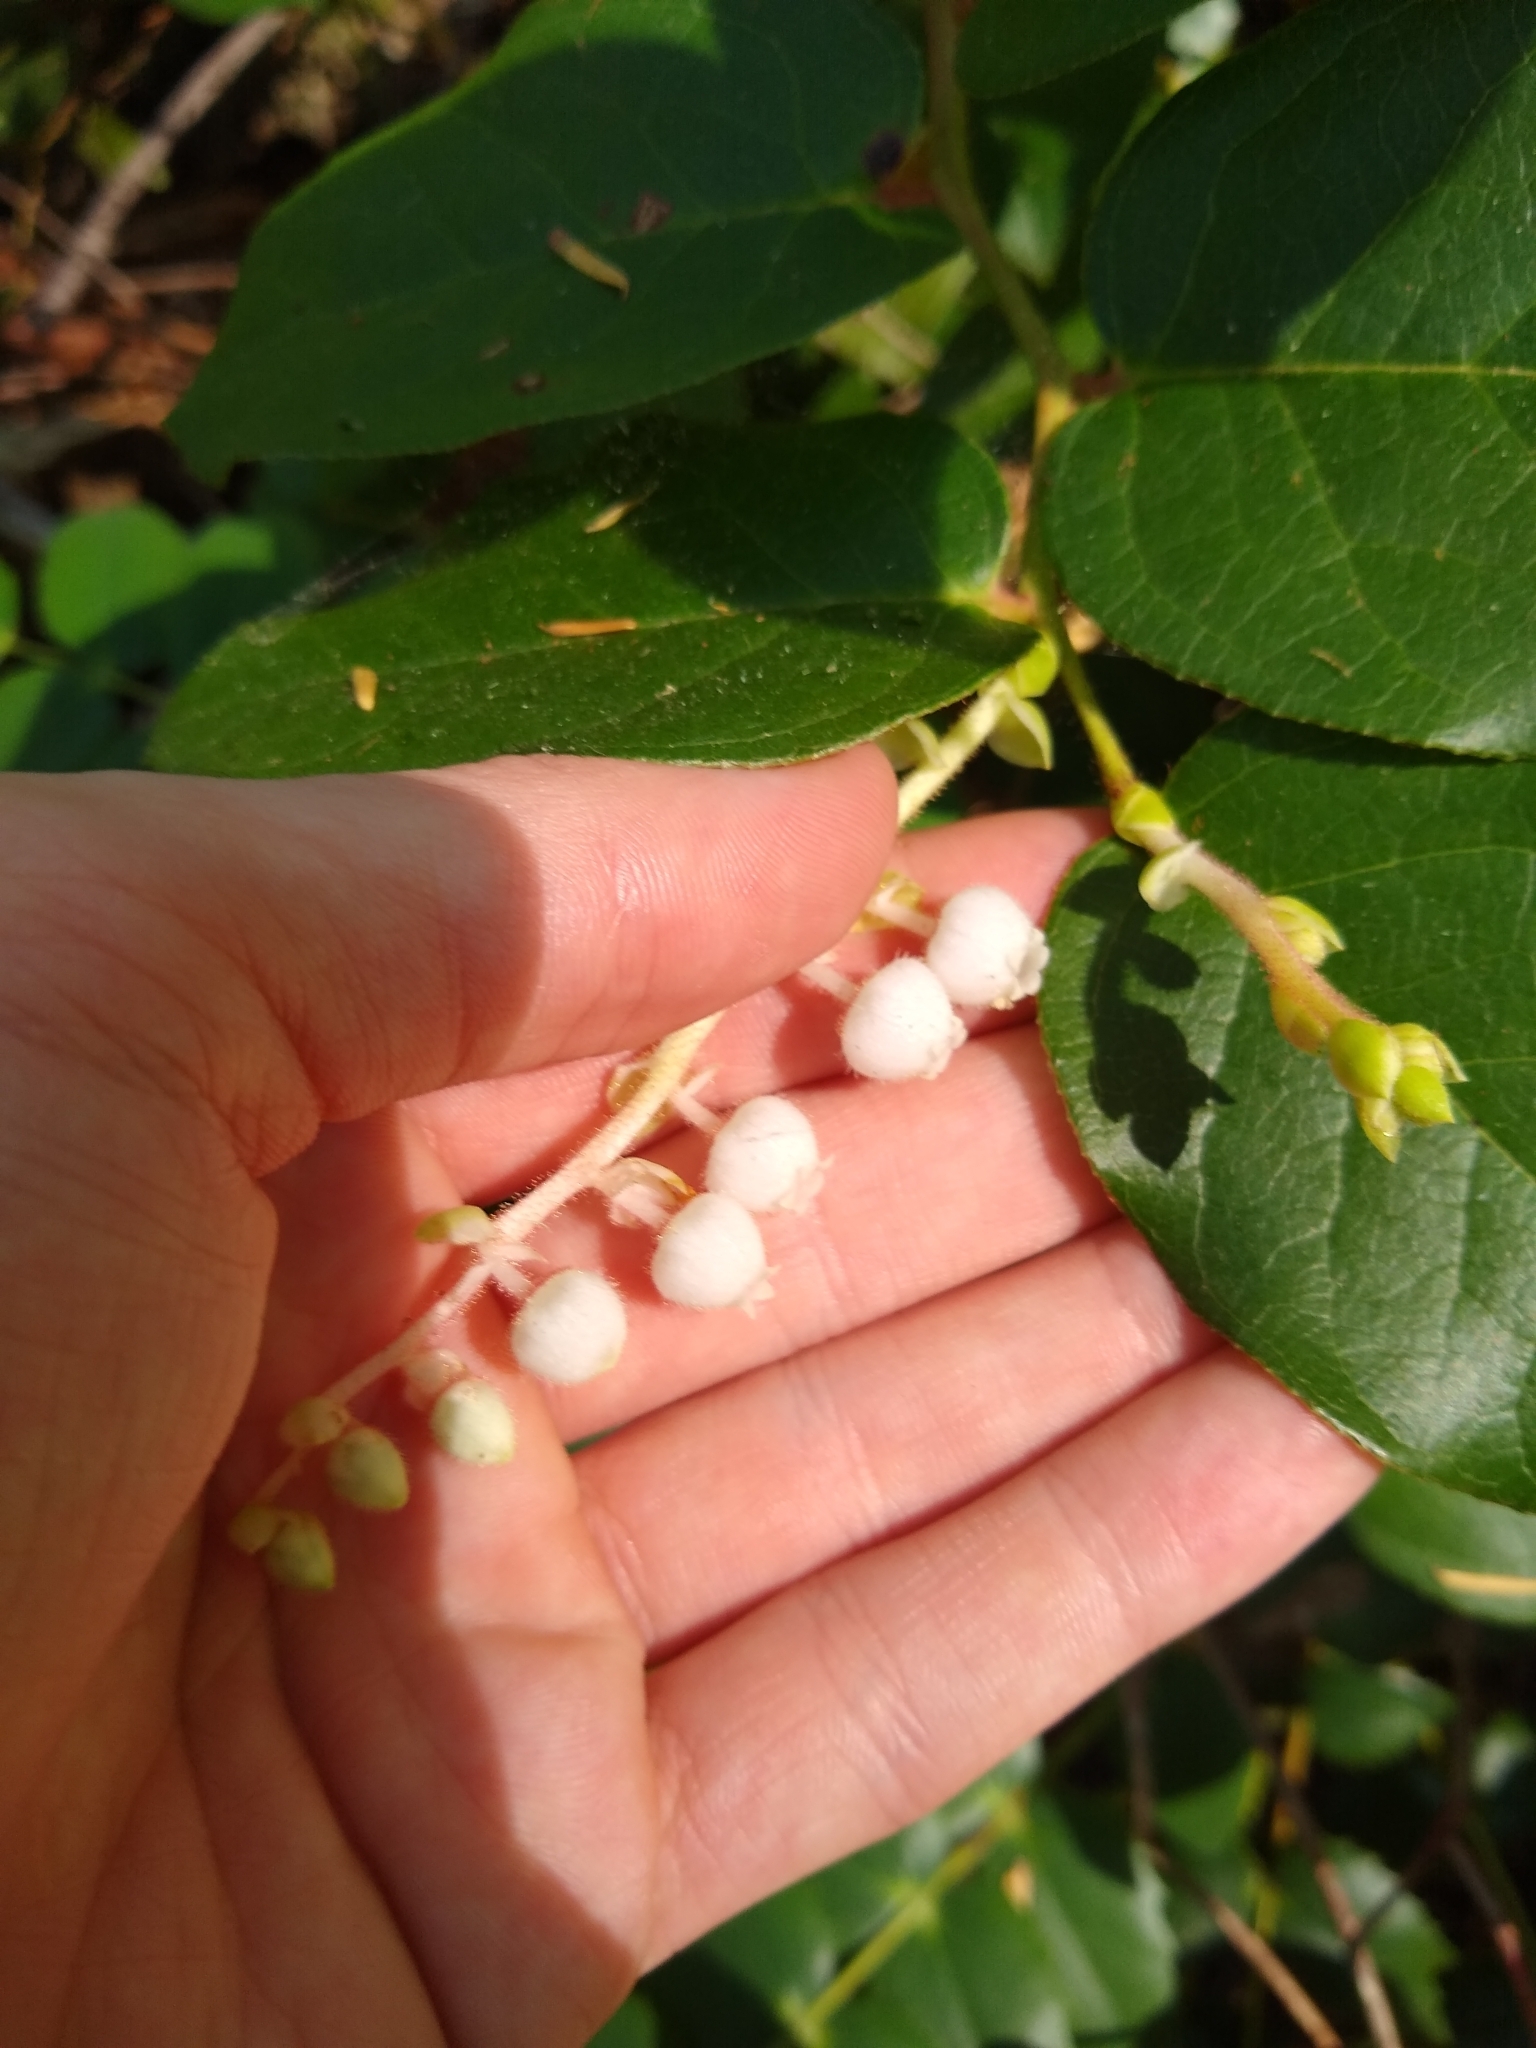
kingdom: Plantae
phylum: Tracheophyta
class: Magnoliopsida
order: Ericales
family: Ericaceae
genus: Gaultheria
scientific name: Gaultheria shallon
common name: Shallon
